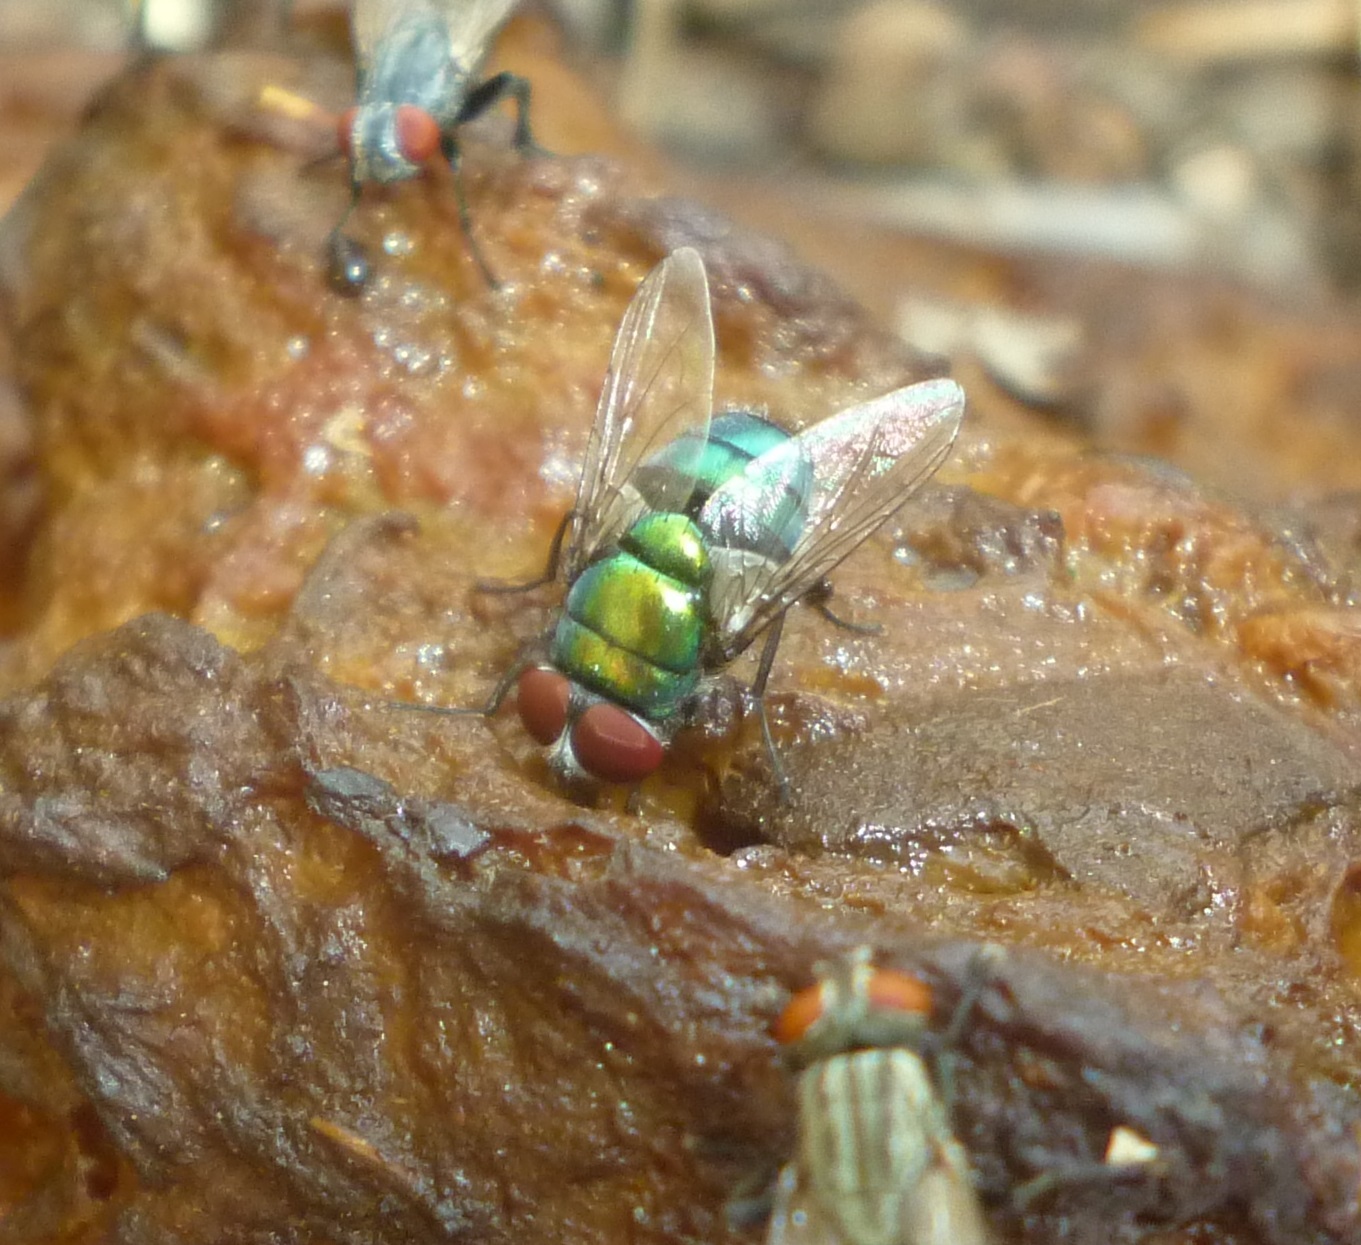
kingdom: Animalia
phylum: Arthropoda
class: Insecta
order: Diptera
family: Calliphoridae
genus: Chrysomya
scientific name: Chrysomya albiceps
